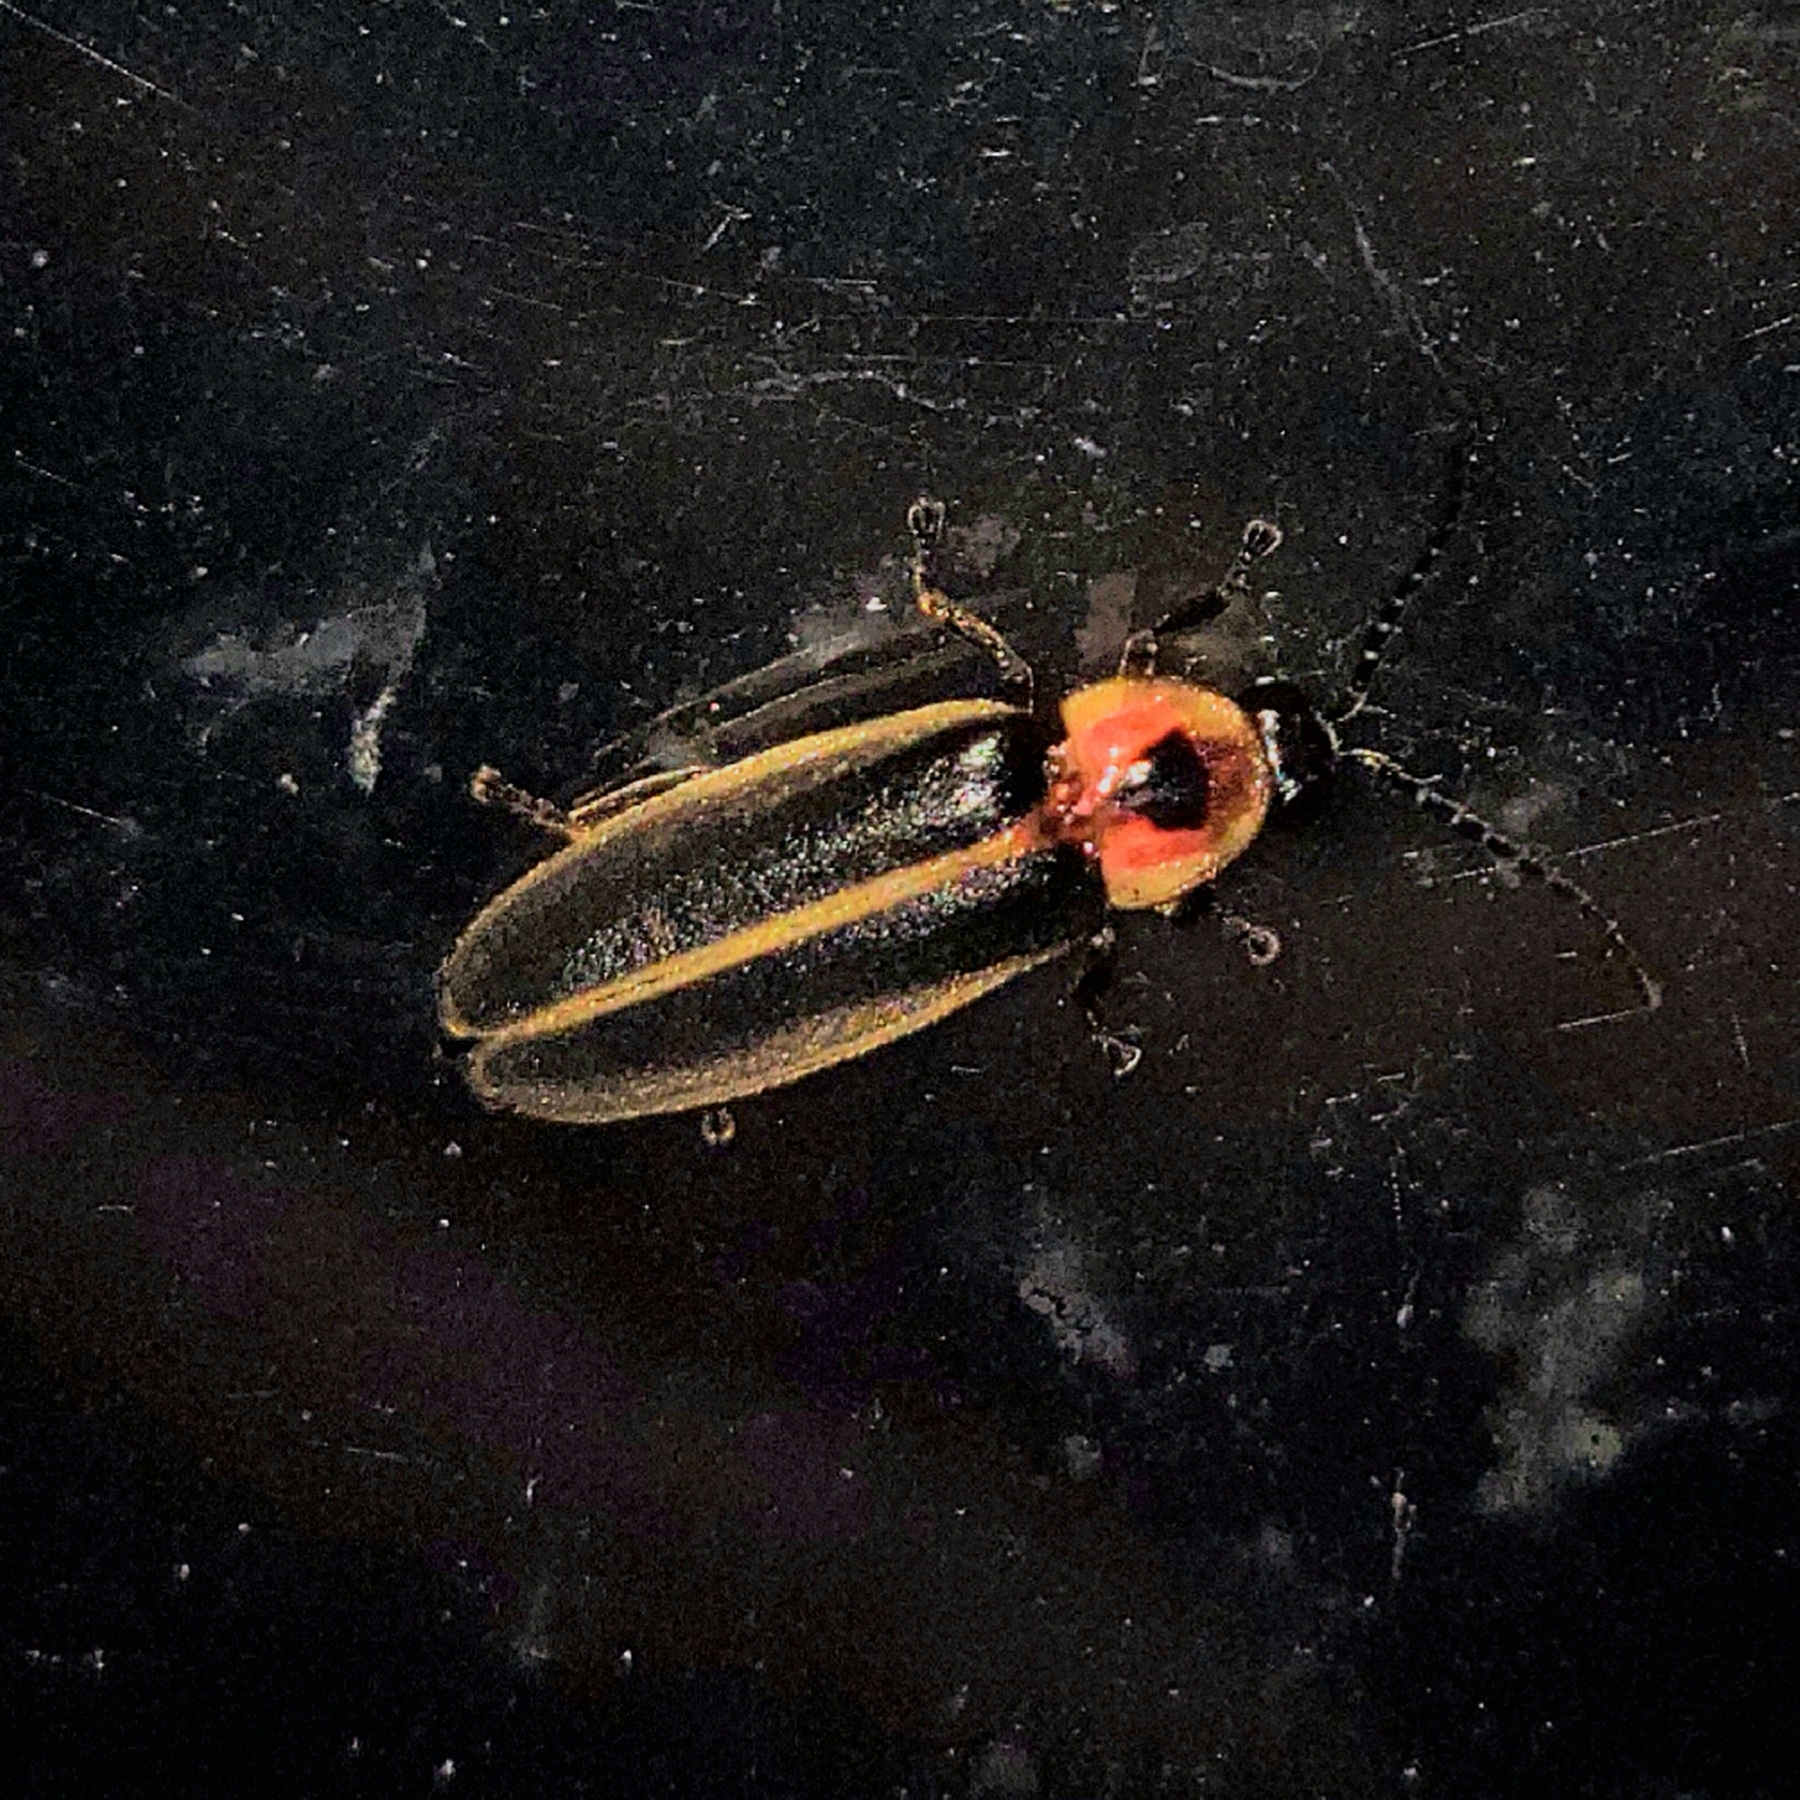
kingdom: Animalia
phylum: Arthropoda
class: Insecta
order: Coleoptera
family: Lampyridae
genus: Photinus
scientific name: Photinus pyralis
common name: Big dipper firefly
